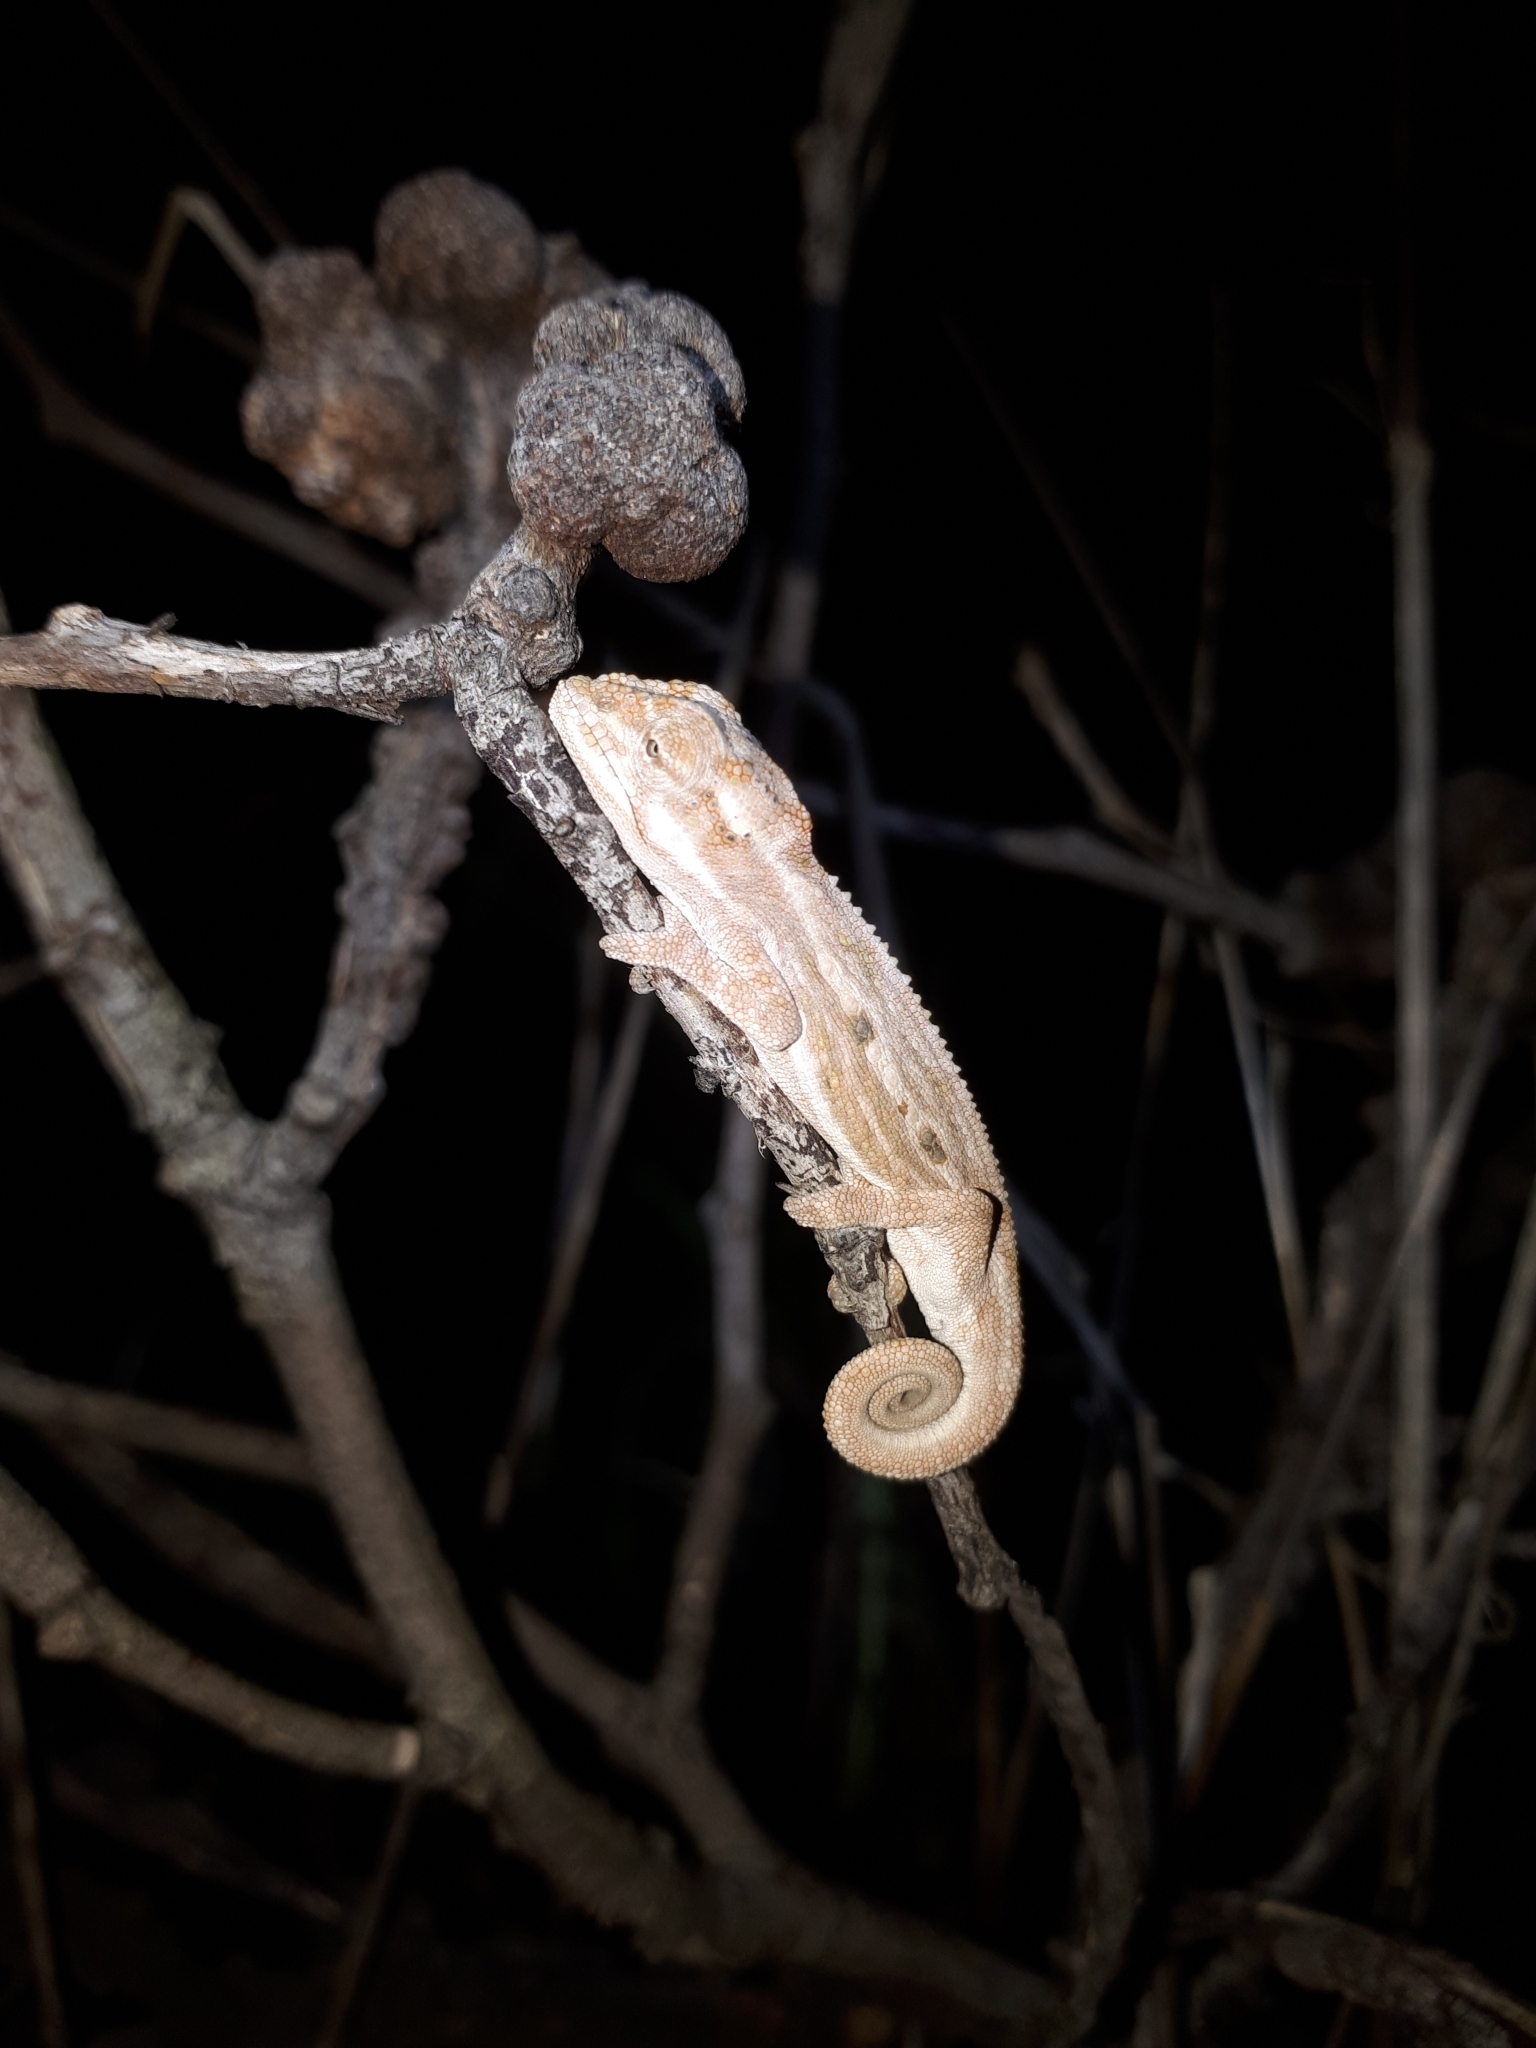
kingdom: Animalia
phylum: Chordata
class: Squamata
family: Chamaeleonidae
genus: Bradypodion
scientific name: Bradypodion pumilum
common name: Cape dwarf chameleon
